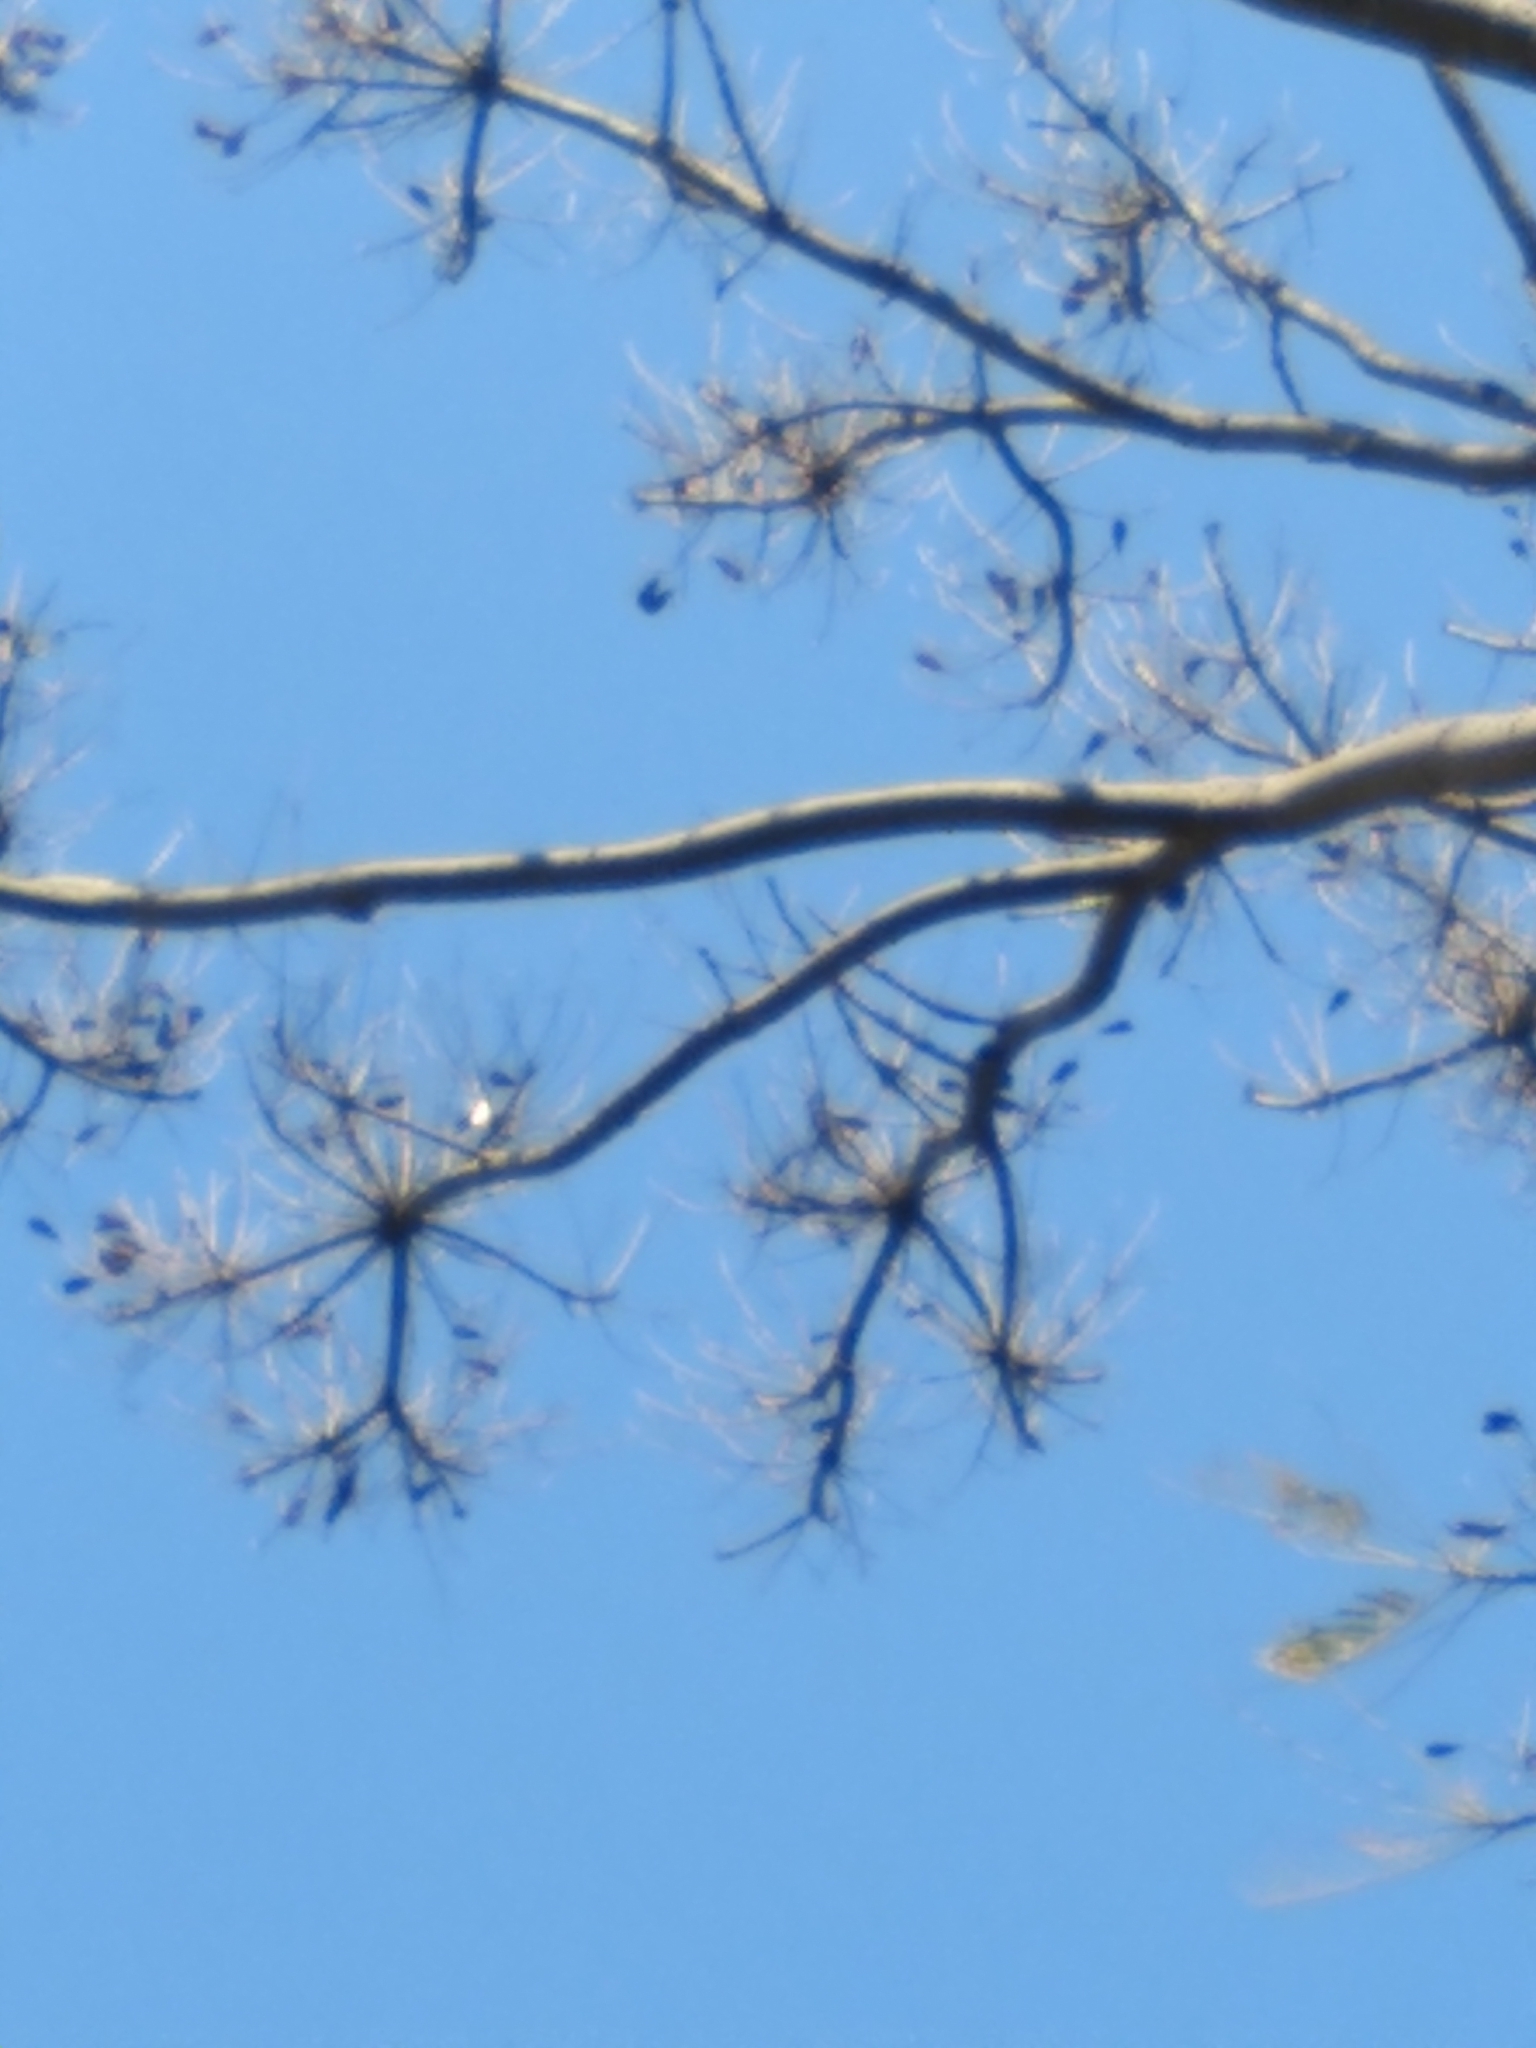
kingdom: Plantae
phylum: Tracheophyta
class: Magnoliopsida
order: Fabales
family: Fabaceae
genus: Schizolobium
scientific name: Schizolobium parahyba
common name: Brazilian firetree
